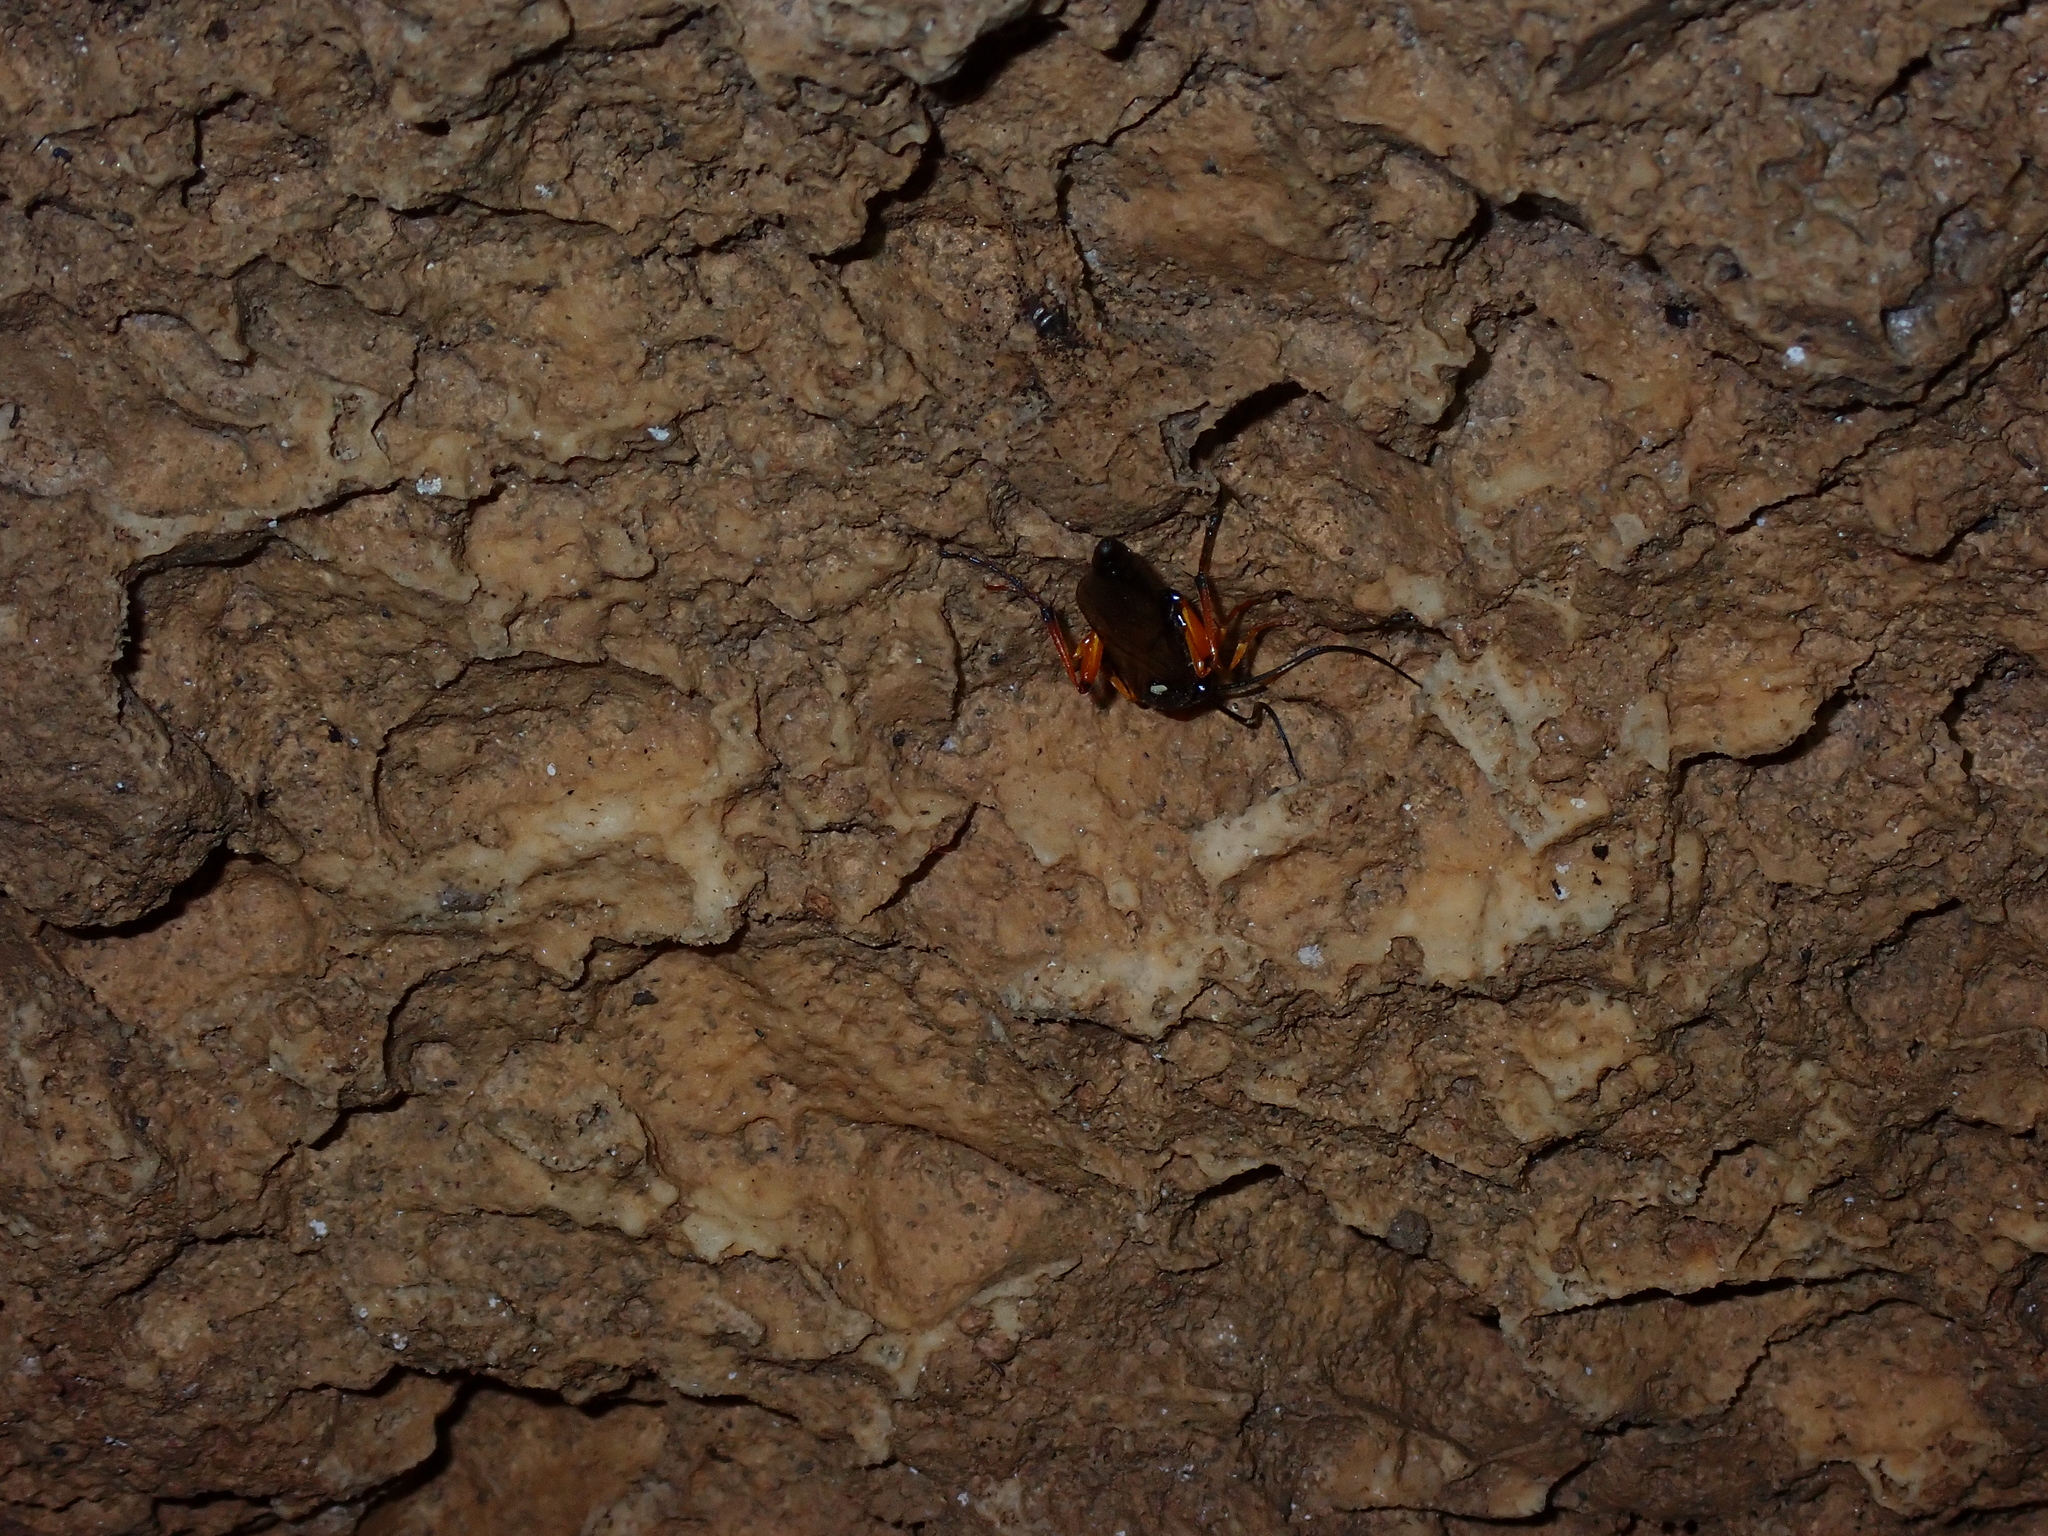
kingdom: Animalia
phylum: Arthropoda
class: Insecta
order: Hymenoptera
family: Ichneumonidae
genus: Diphyus
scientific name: Diphyus quadripunctorius
